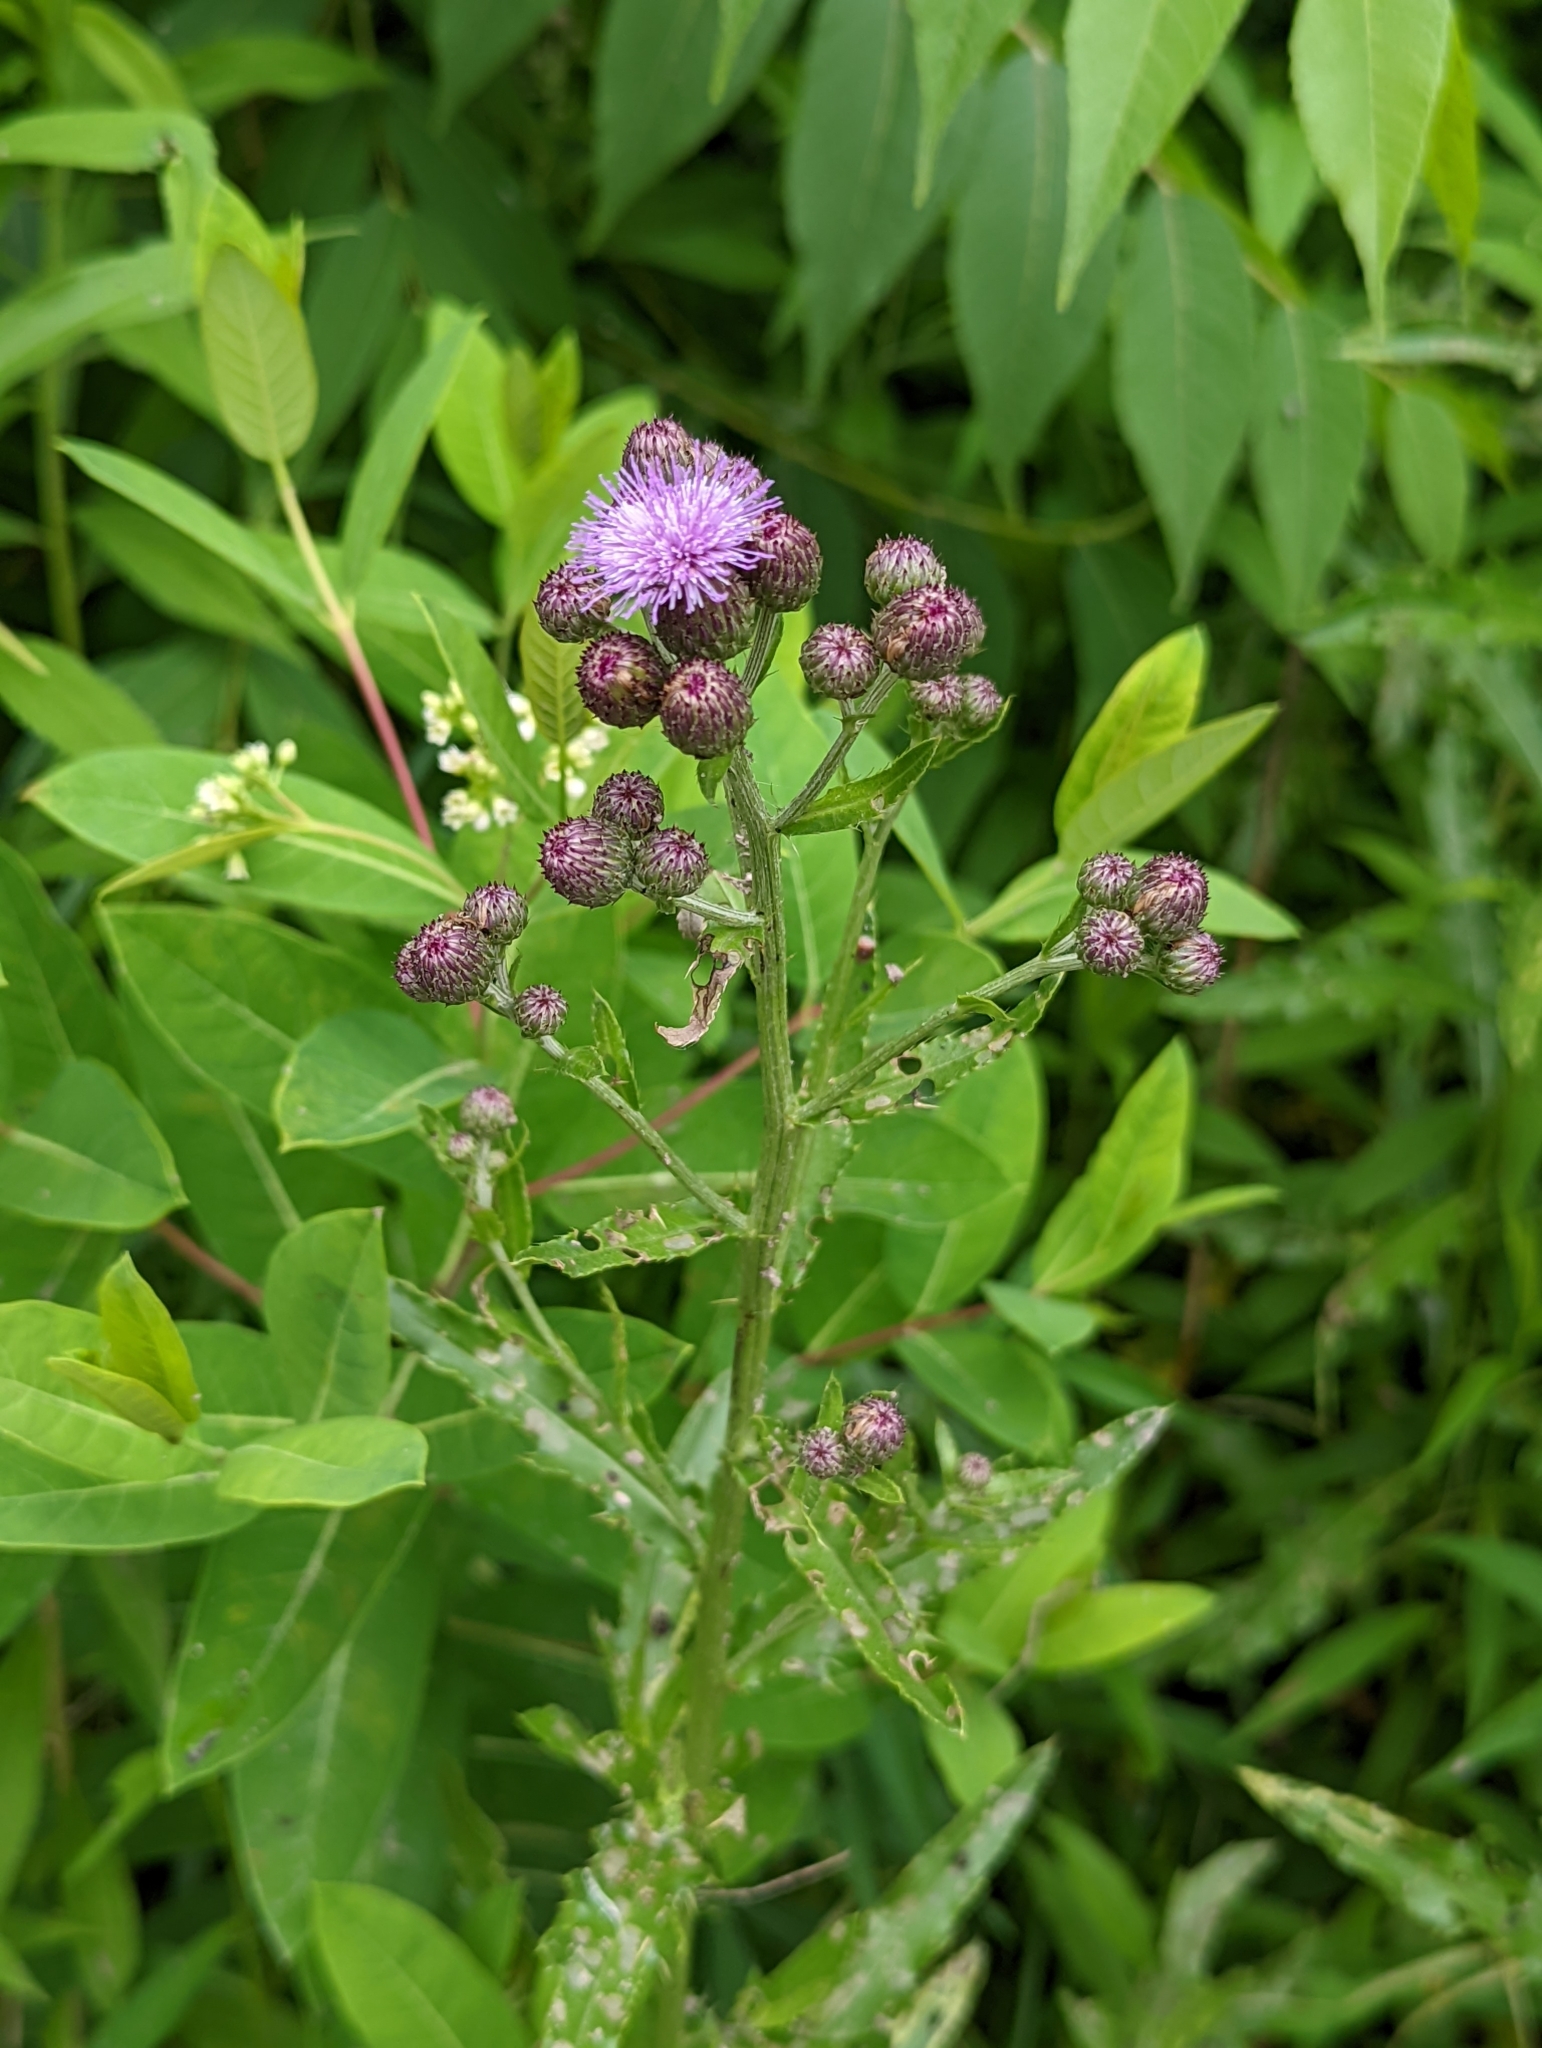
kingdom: Plantae
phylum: Tracheophyta
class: Magnoliopsida
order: Asterales
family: Asteraceae
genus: Cirsium
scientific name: Cirsium arvense
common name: Creeping thistle
